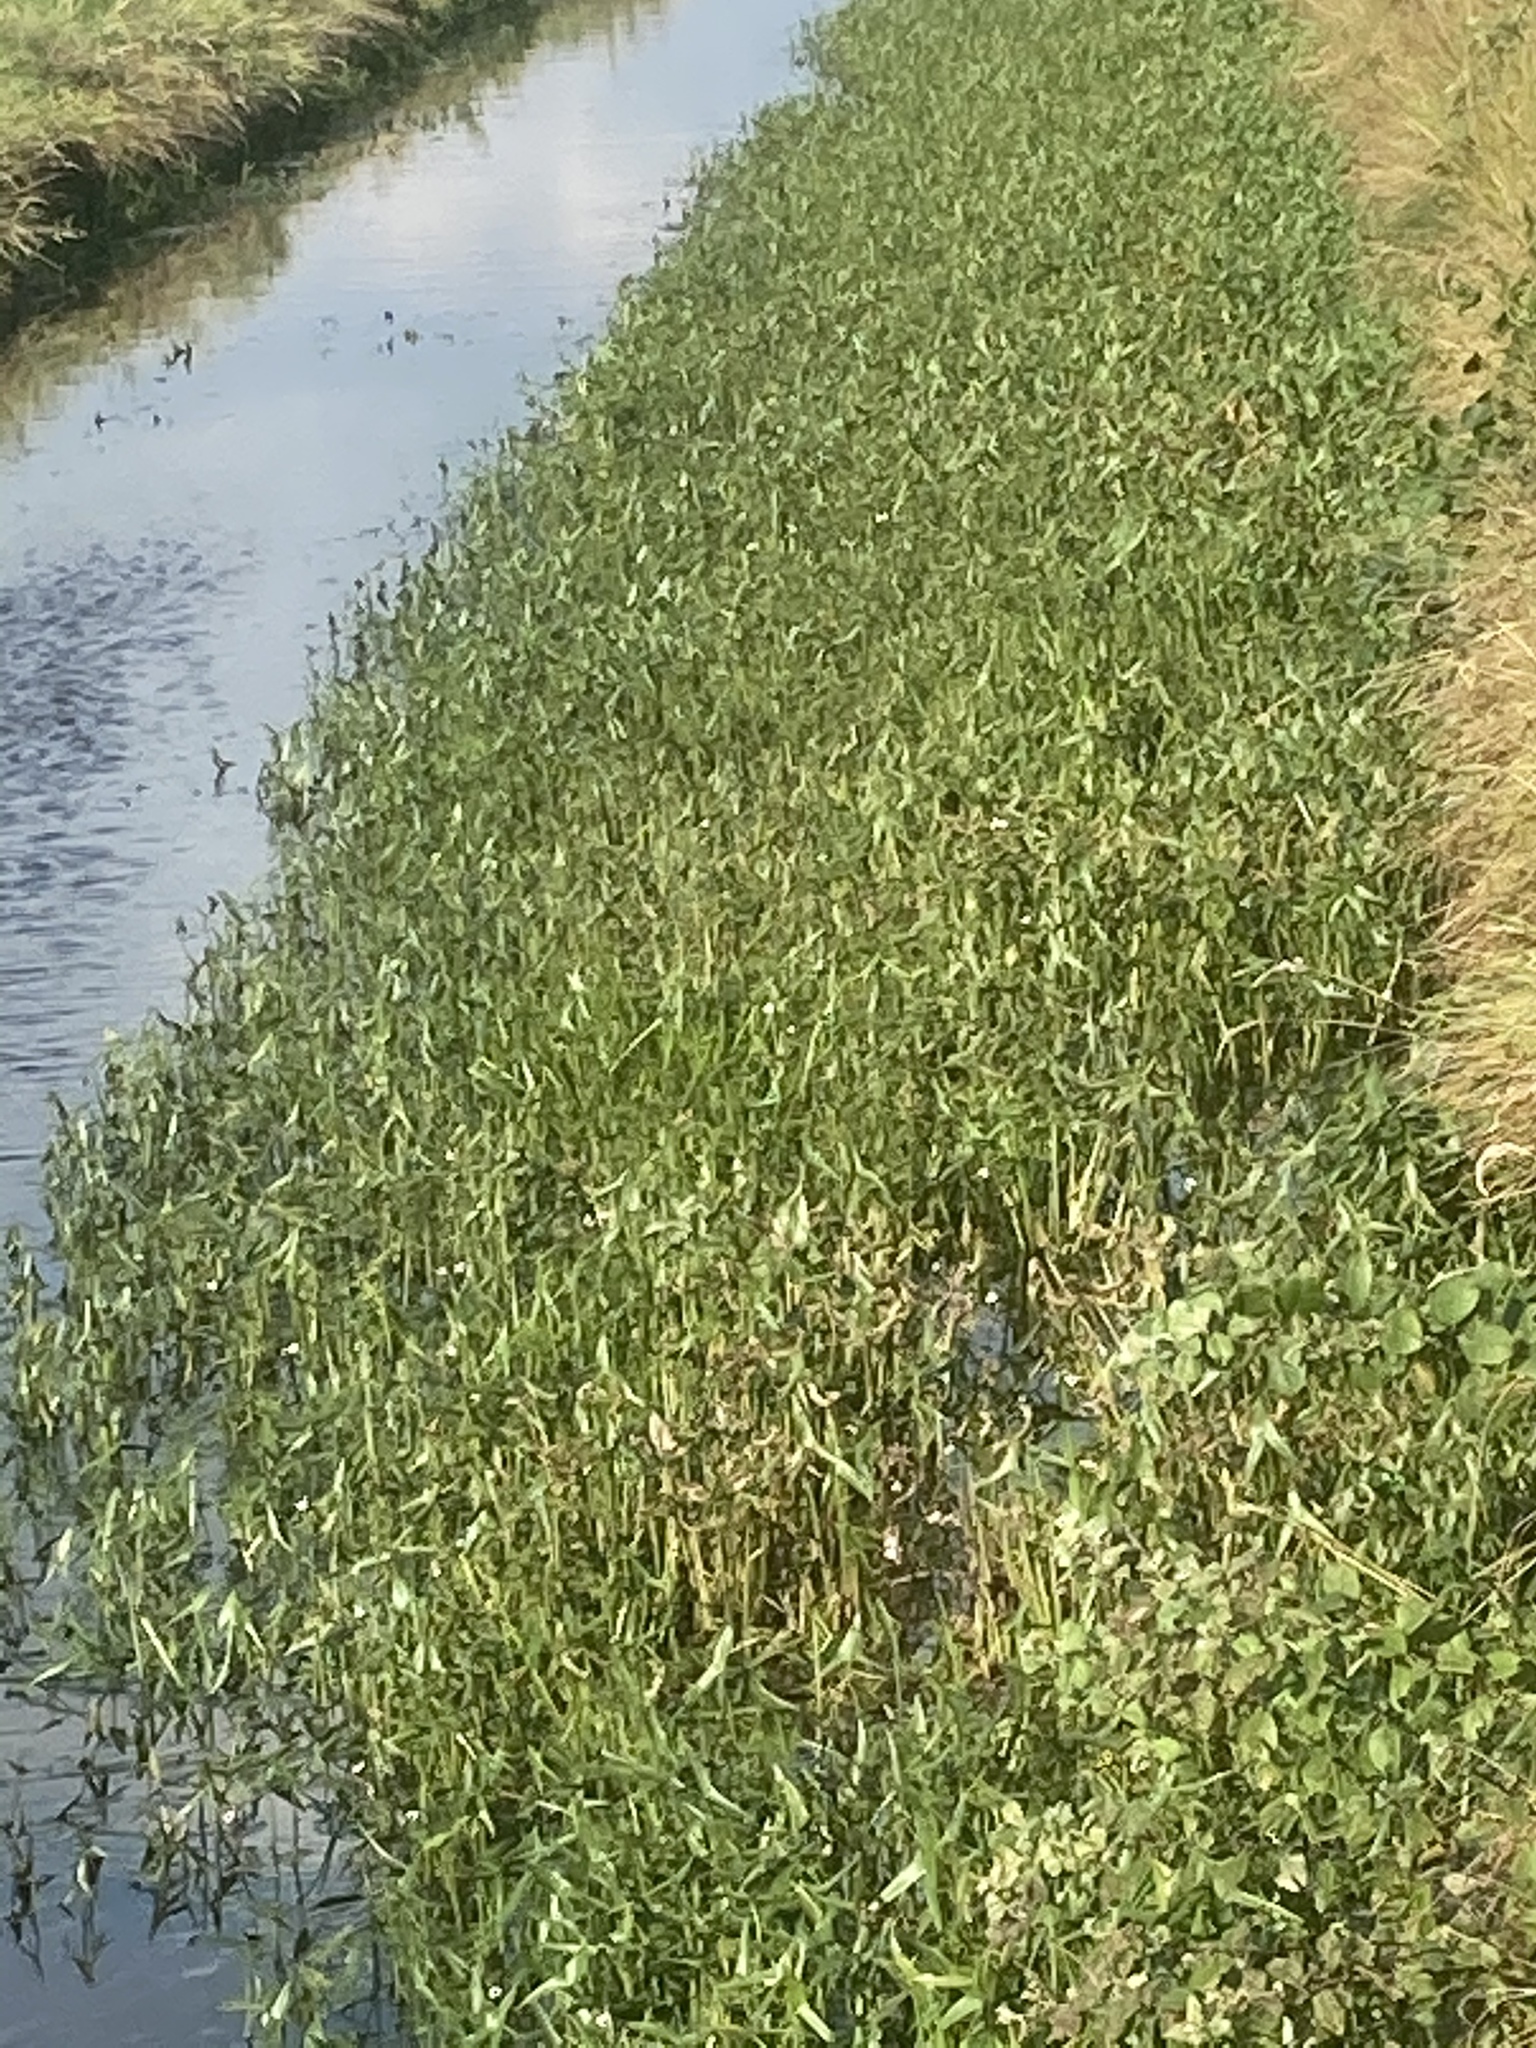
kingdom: Plantae
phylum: Tracheophyta
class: Liliopsida
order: Alismatales
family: Alismataceae
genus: Sagittaria
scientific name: Sagittaria sagittifolia
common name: Arrowhead
